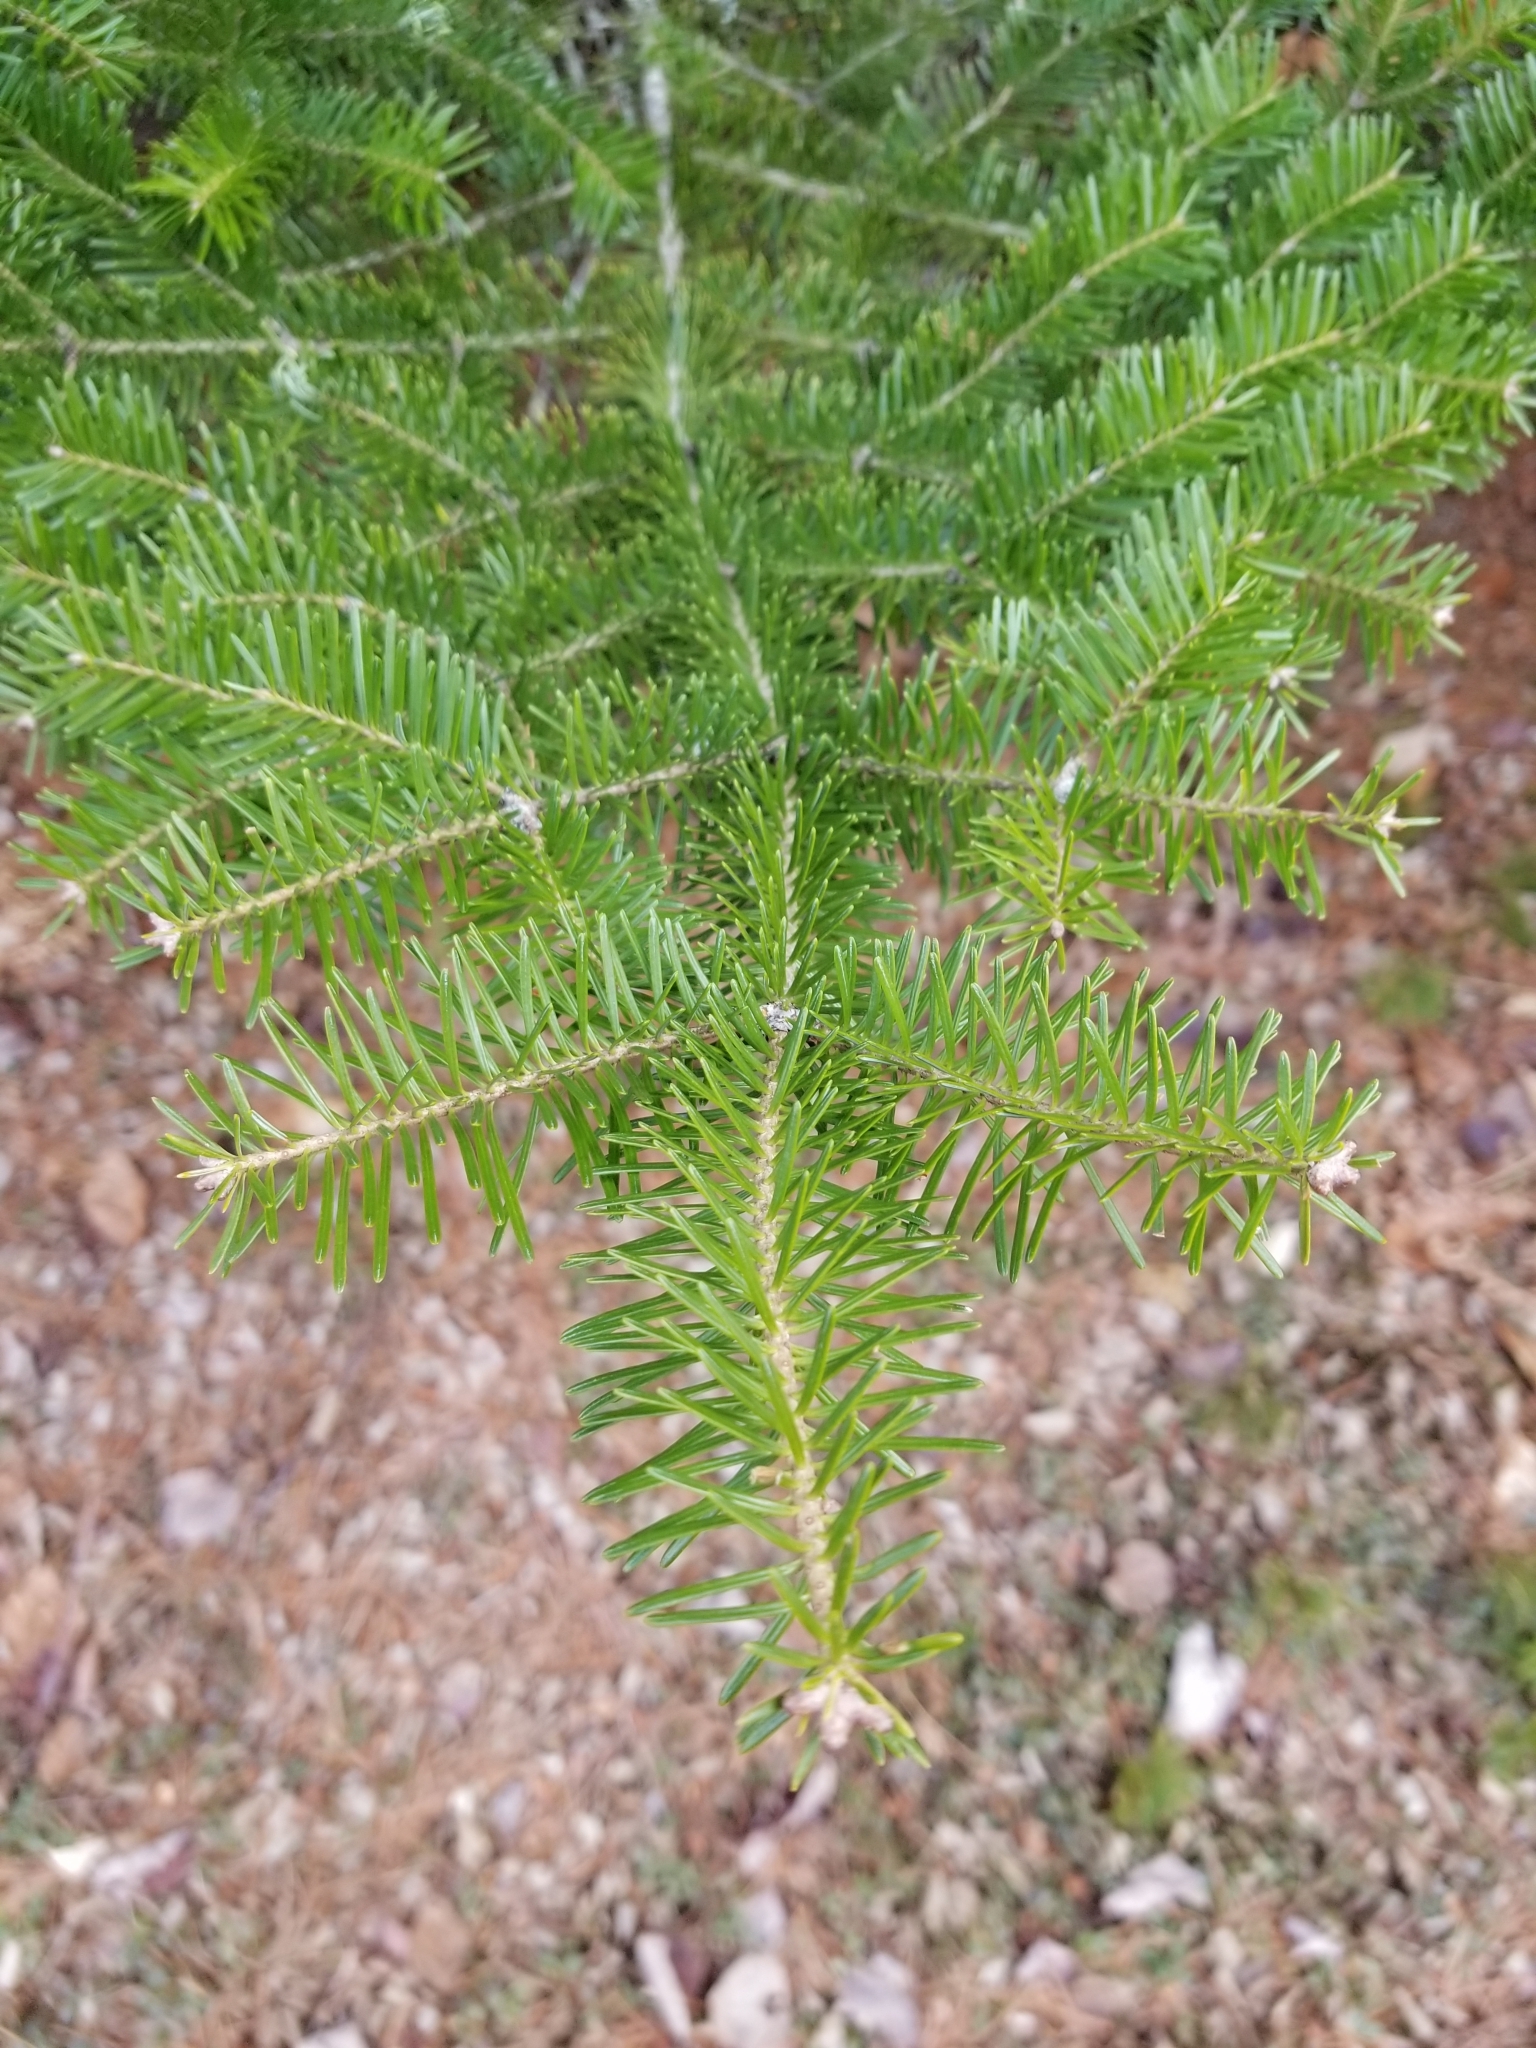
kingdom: Plantae
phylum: Tracheophyta
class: Pinopsida
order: Pinales
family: Pinaceae
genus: Abies
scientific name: Abies balsamea
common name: Balsam fir
